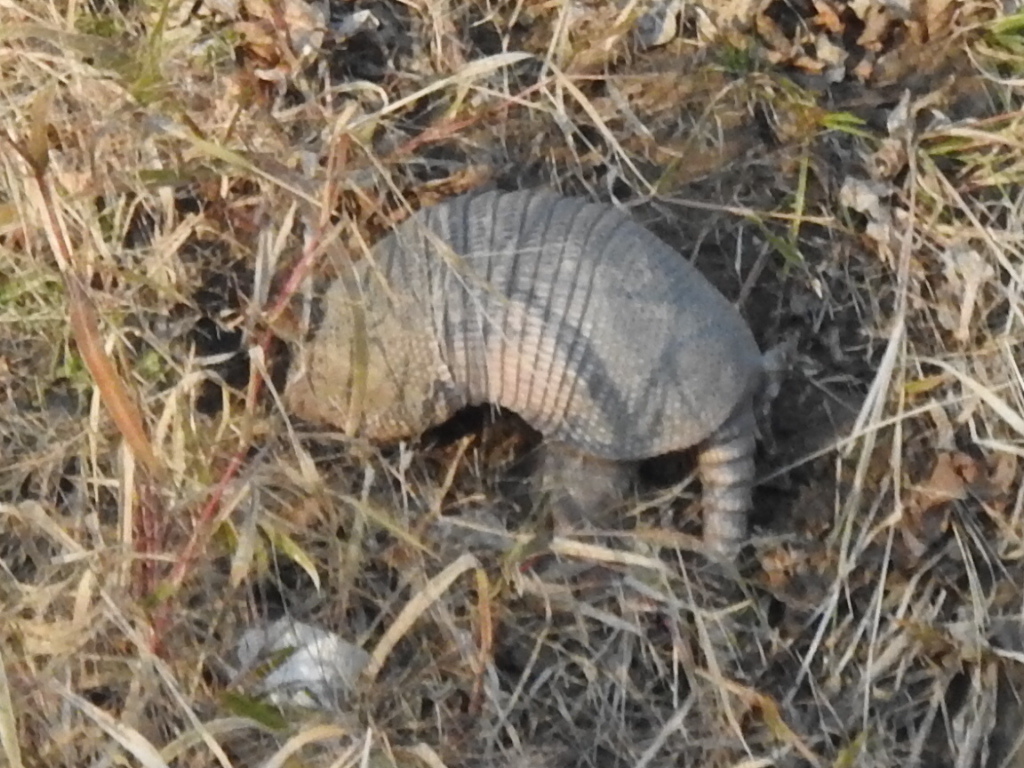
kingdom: Animalia
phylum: Chordata
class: Mammalia
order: Cingulata
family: Dasypodidae
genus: Dasypus
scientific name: Dasypus novemcinctus
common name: Nine-banded armadillo
